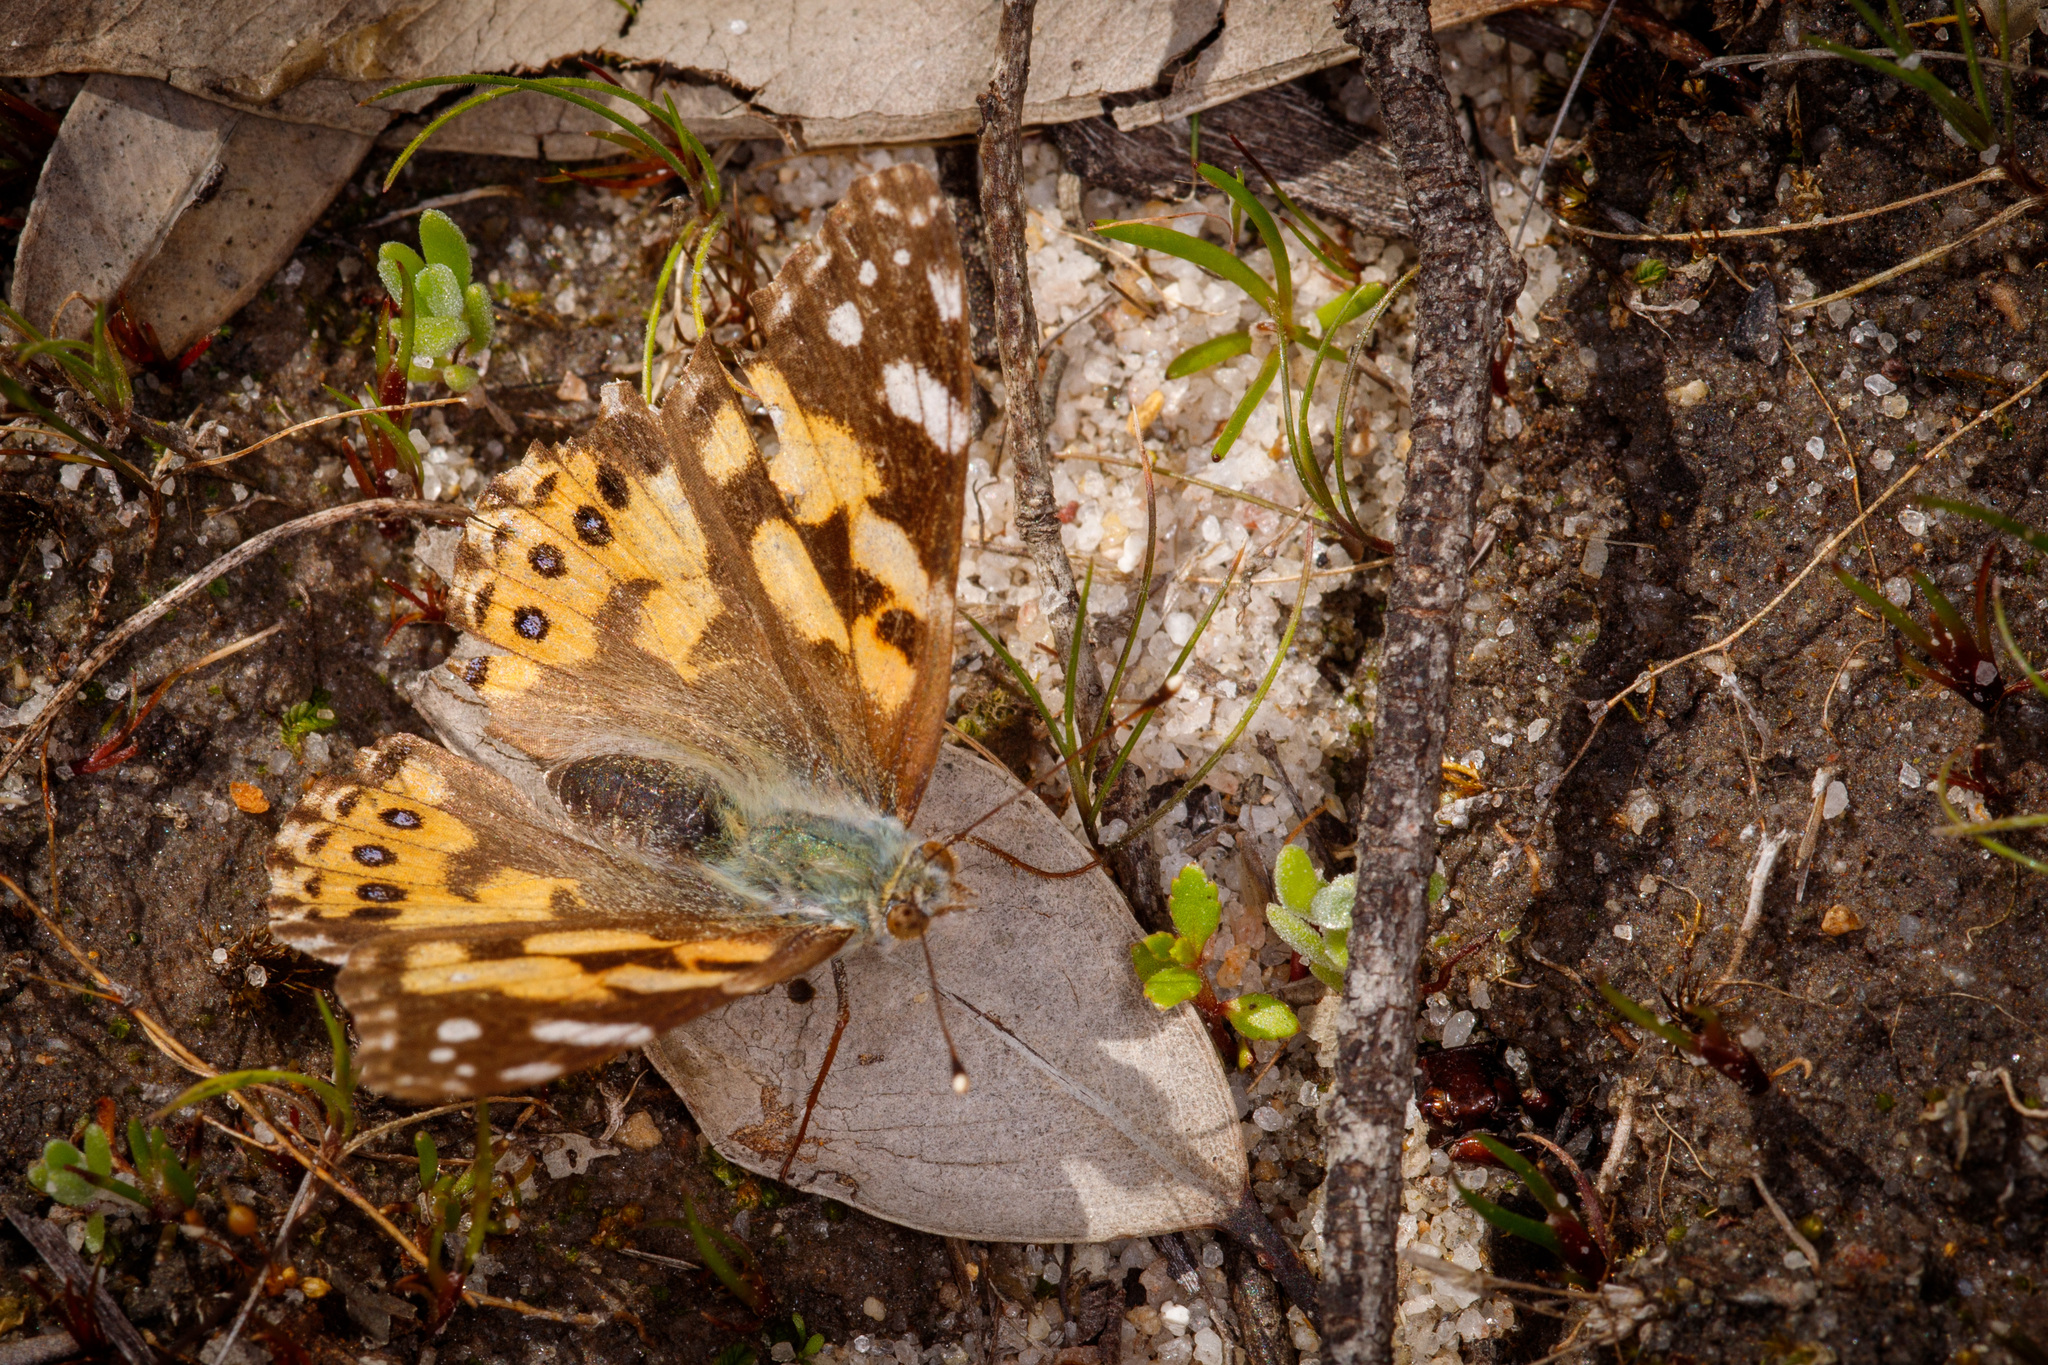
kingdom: Animalia
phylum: Arthropoda
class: Insecta
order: Lepidoptera
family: Nymphalidae
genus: Vanessa
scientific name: Vanessa kershawi
